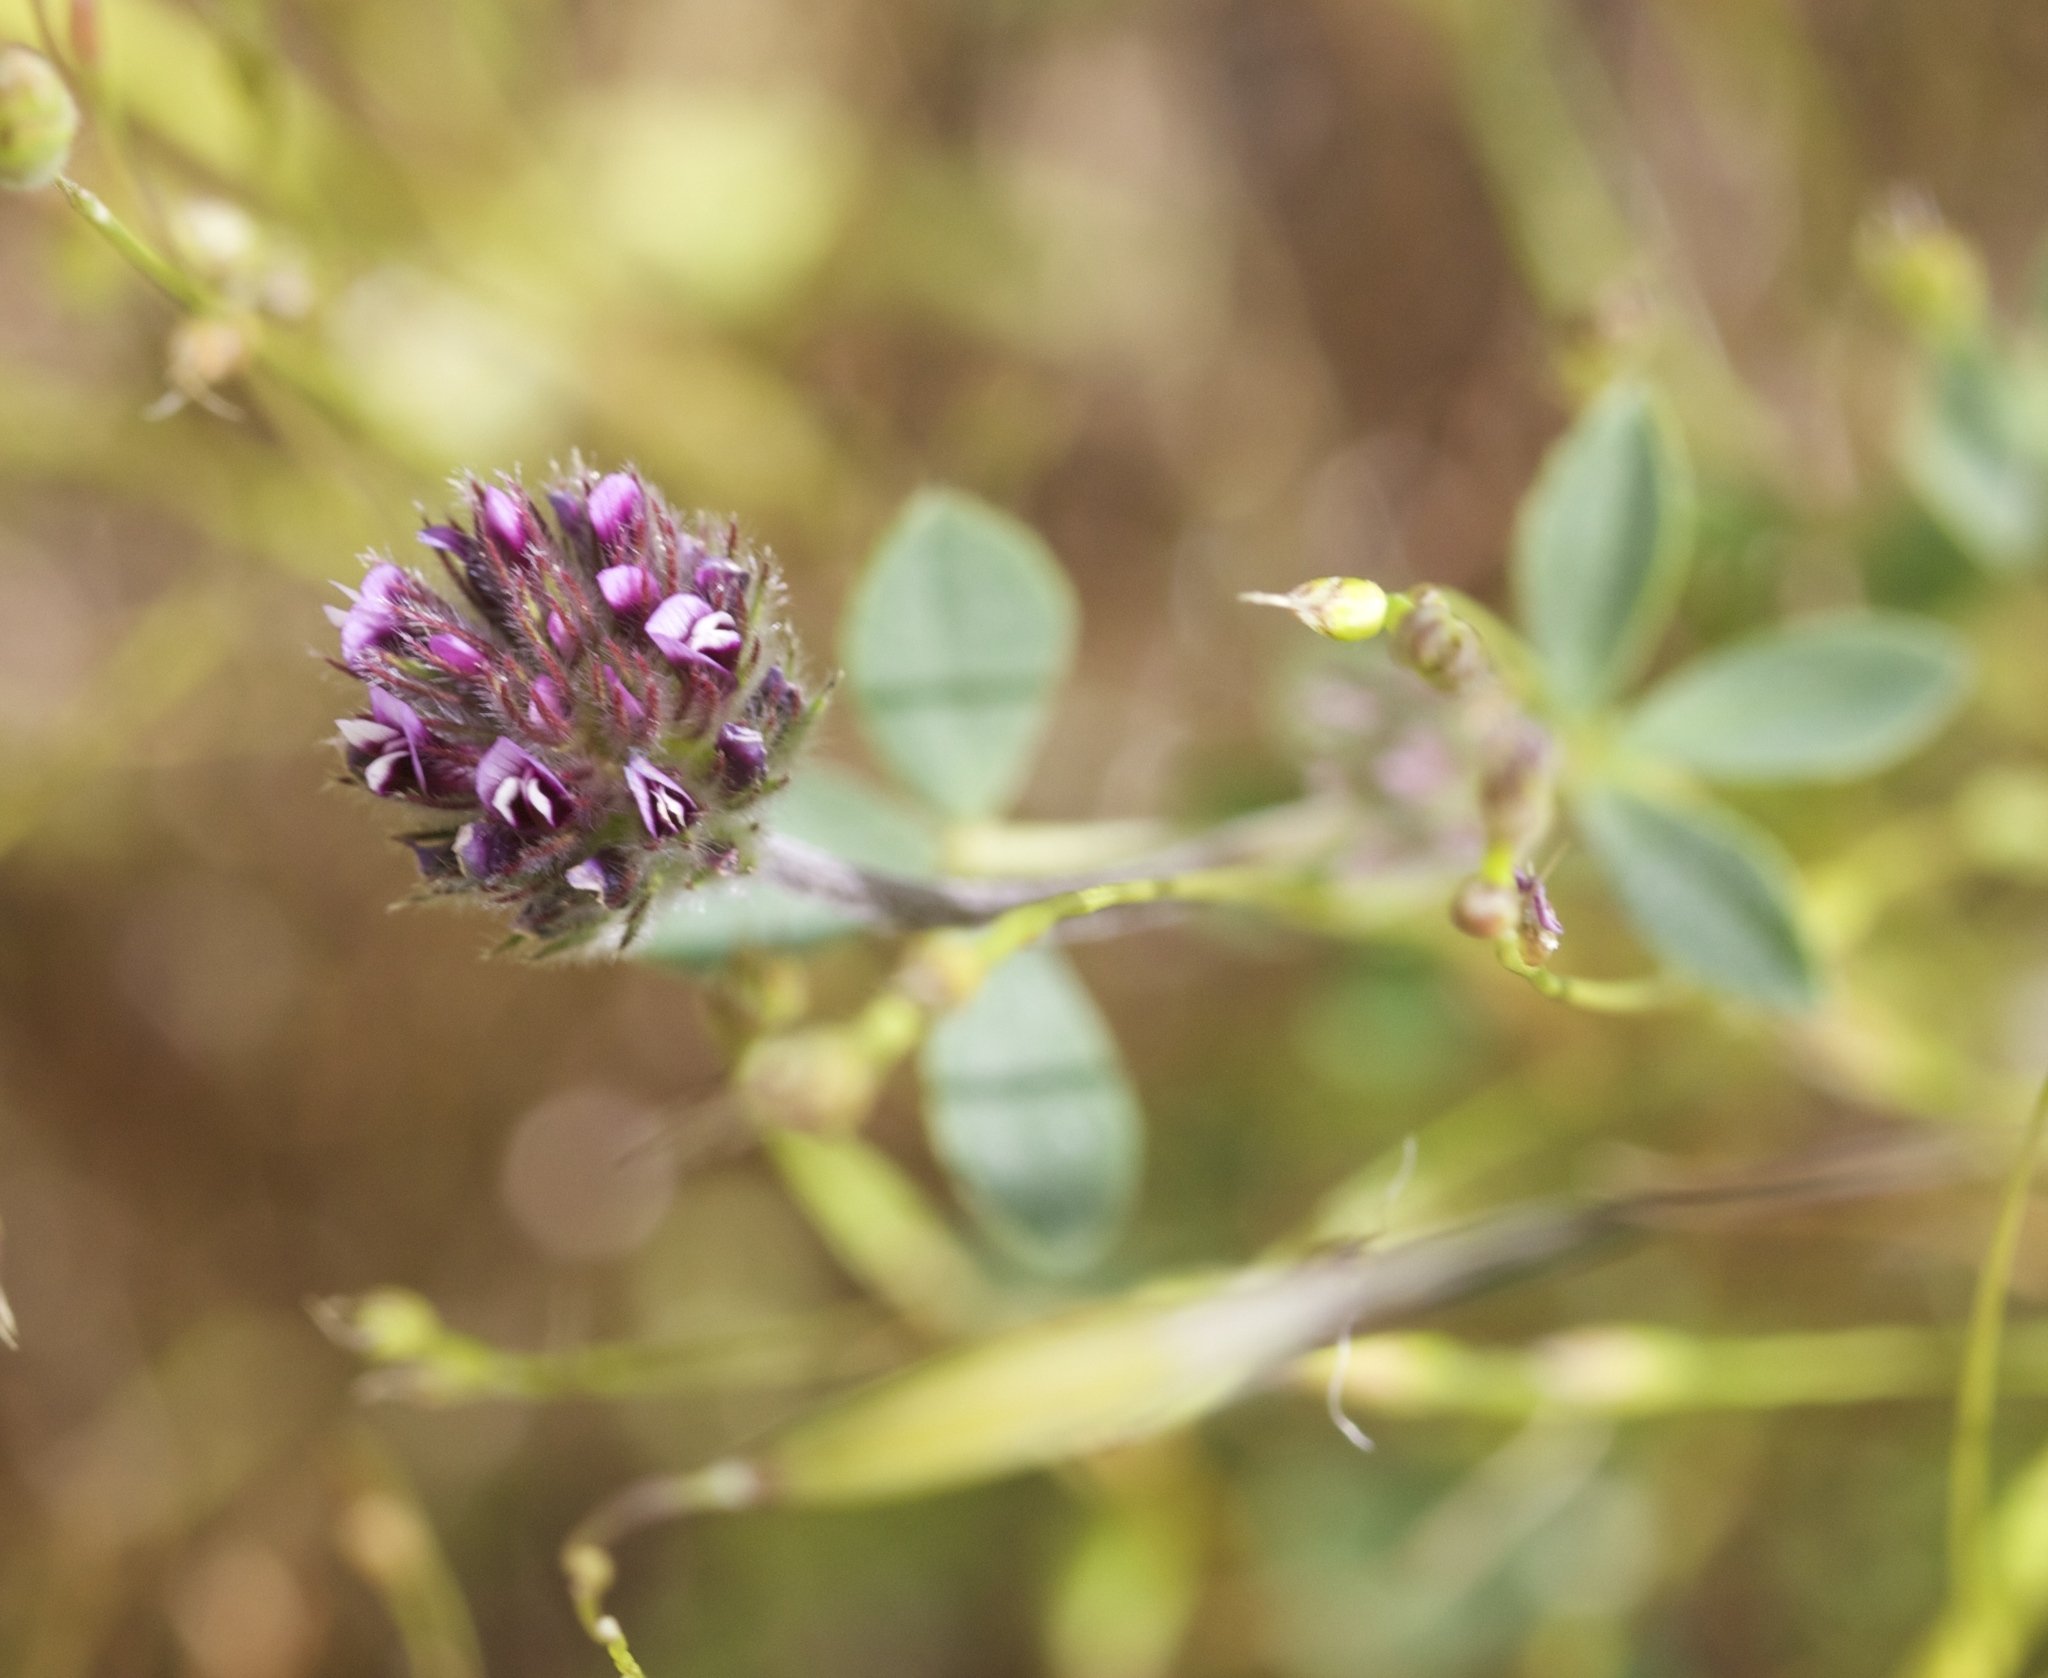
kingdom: Plantae
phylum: Tracheophyta
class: Magnoliopsida
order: Fabales
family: Fabaceae
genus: Trifolium
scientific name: Trifolium dichotomum
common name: Branched indian clover
